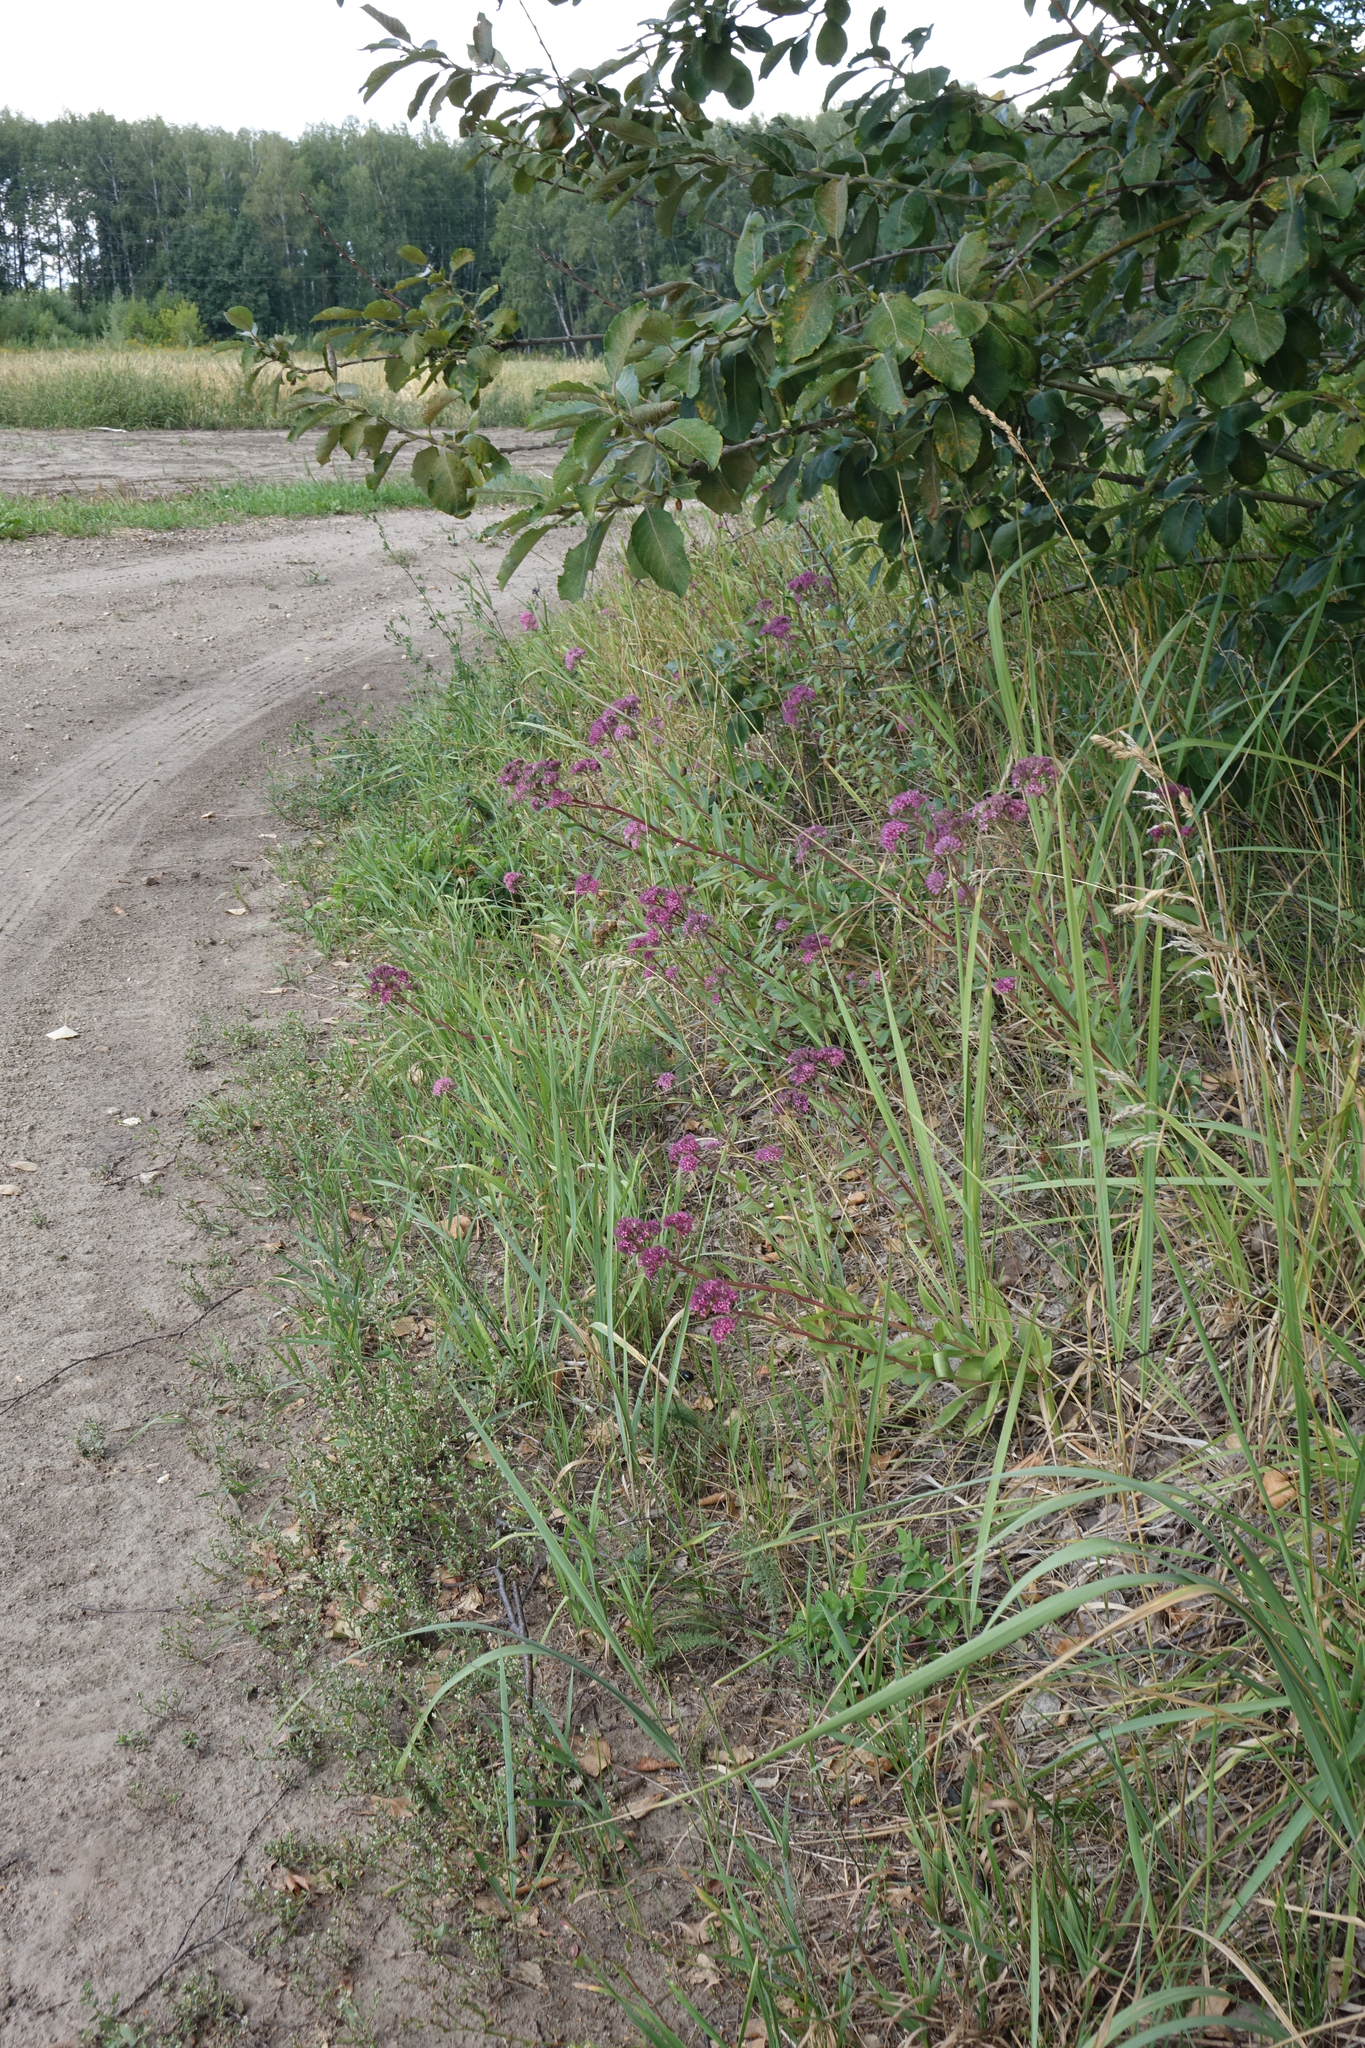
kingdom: Plantae
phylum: Tracheophyta
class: Magnoliopsida
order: Saxifragales
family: Crassulaceae
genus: Hylotelephium
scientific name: Hylotelephium telephium
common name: Live-forever
